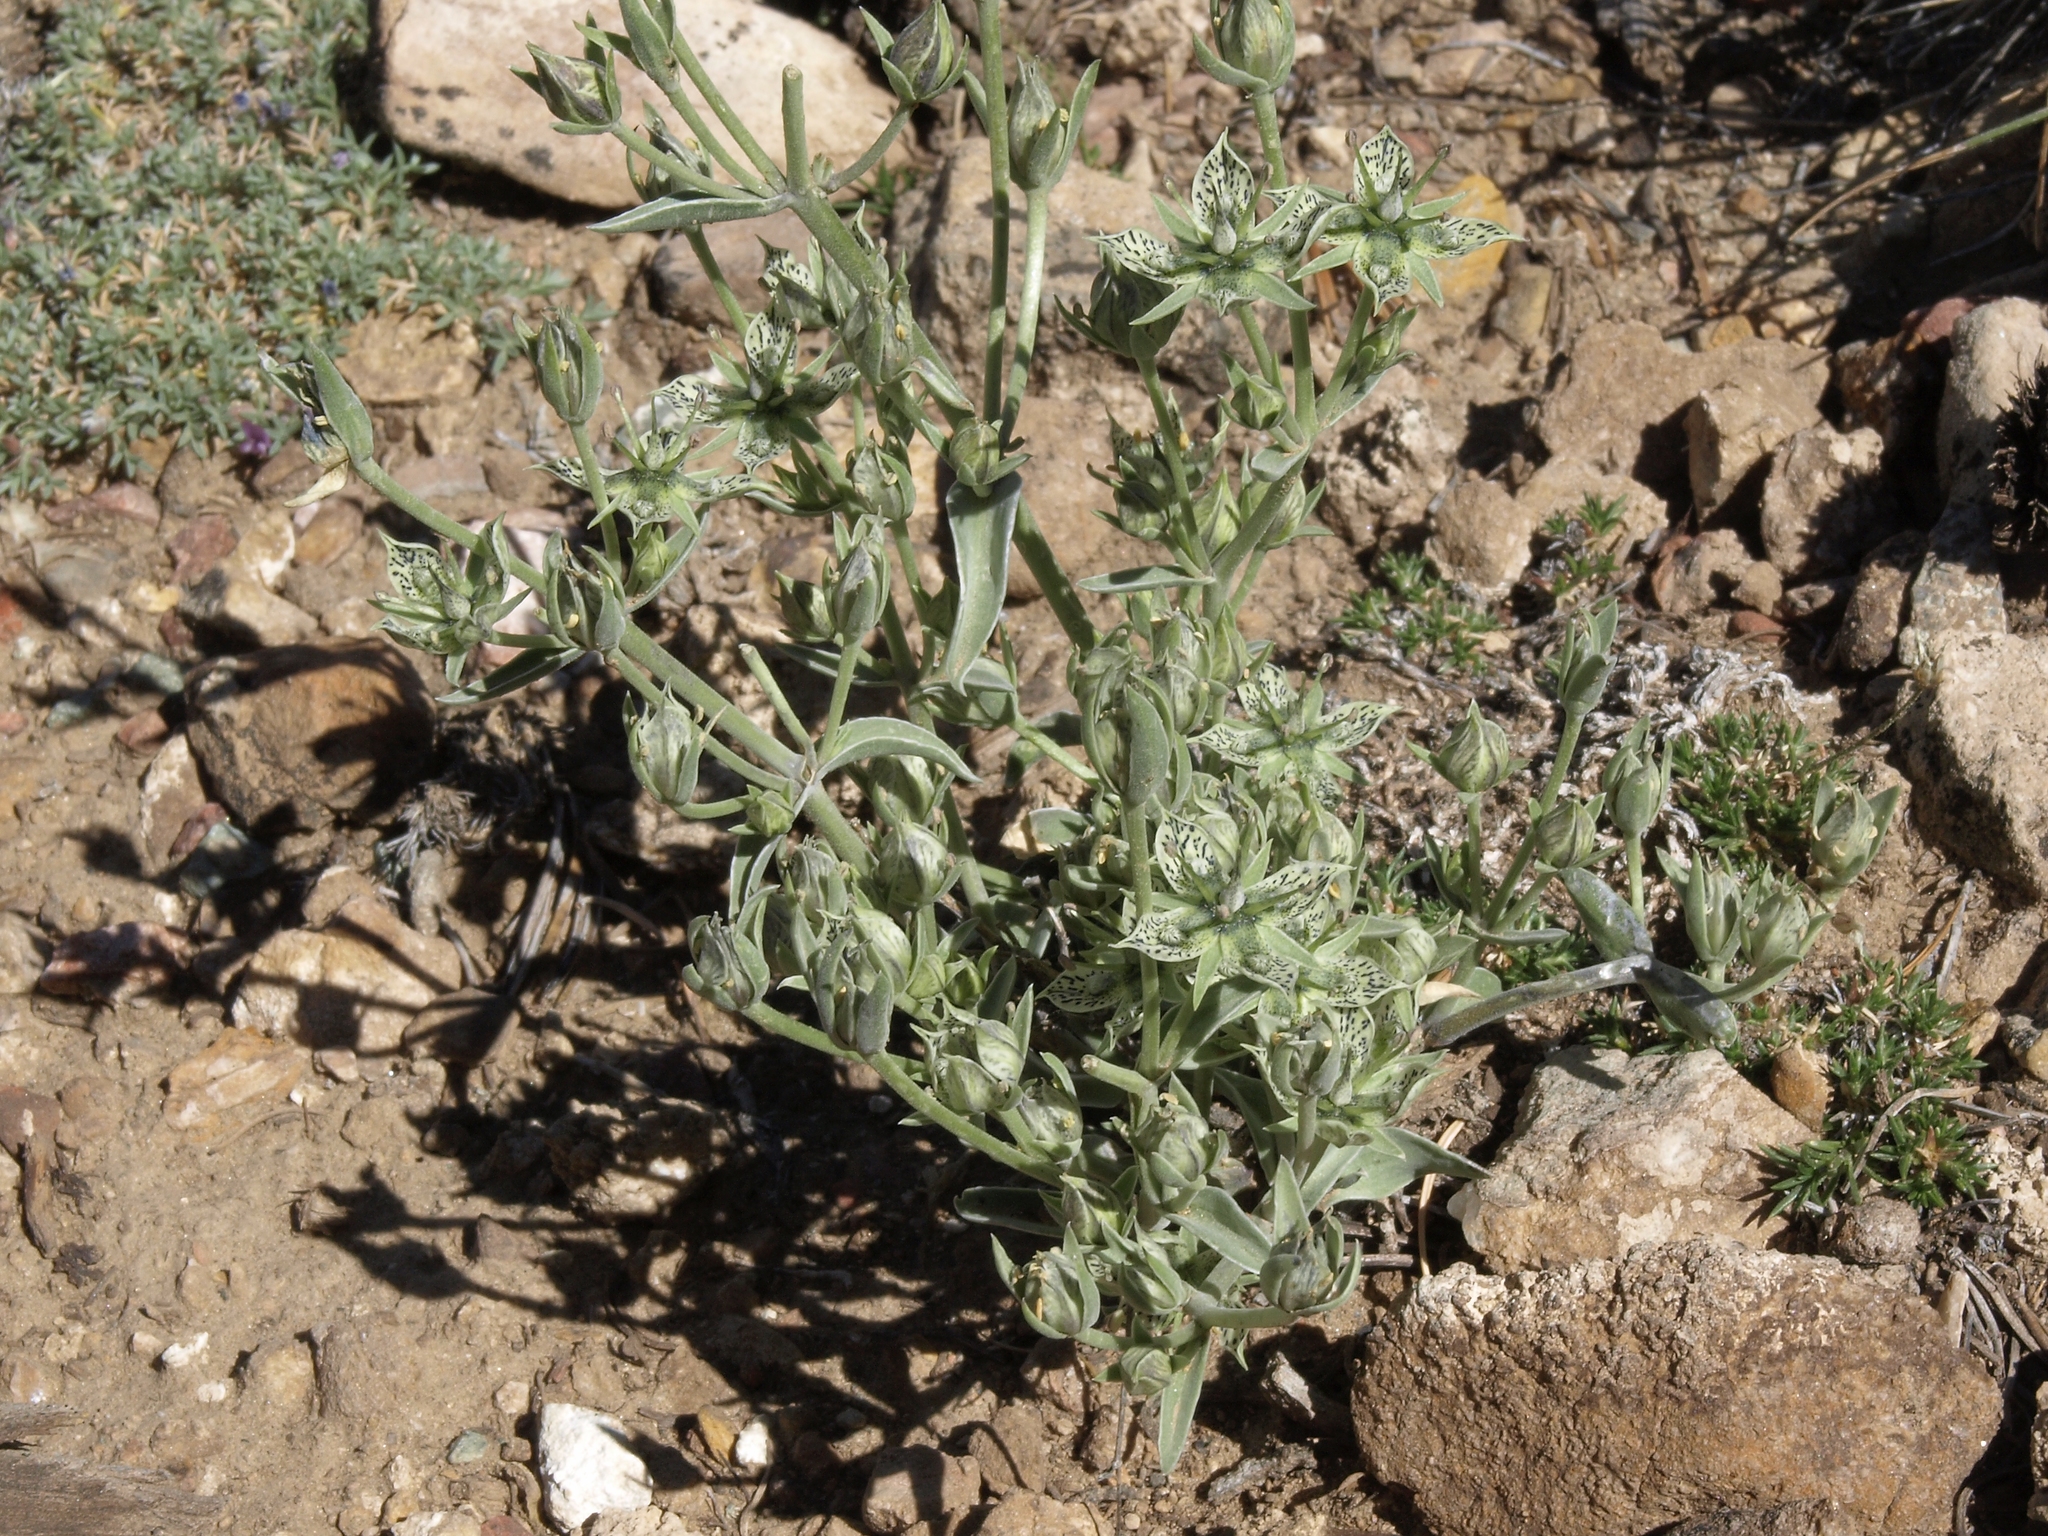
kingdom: Plantae
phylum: Tracheophyta
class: Magnoliopsida
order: Gentianales
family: Gentianaceae
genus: Frasera
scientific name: Frasera puberulenta
